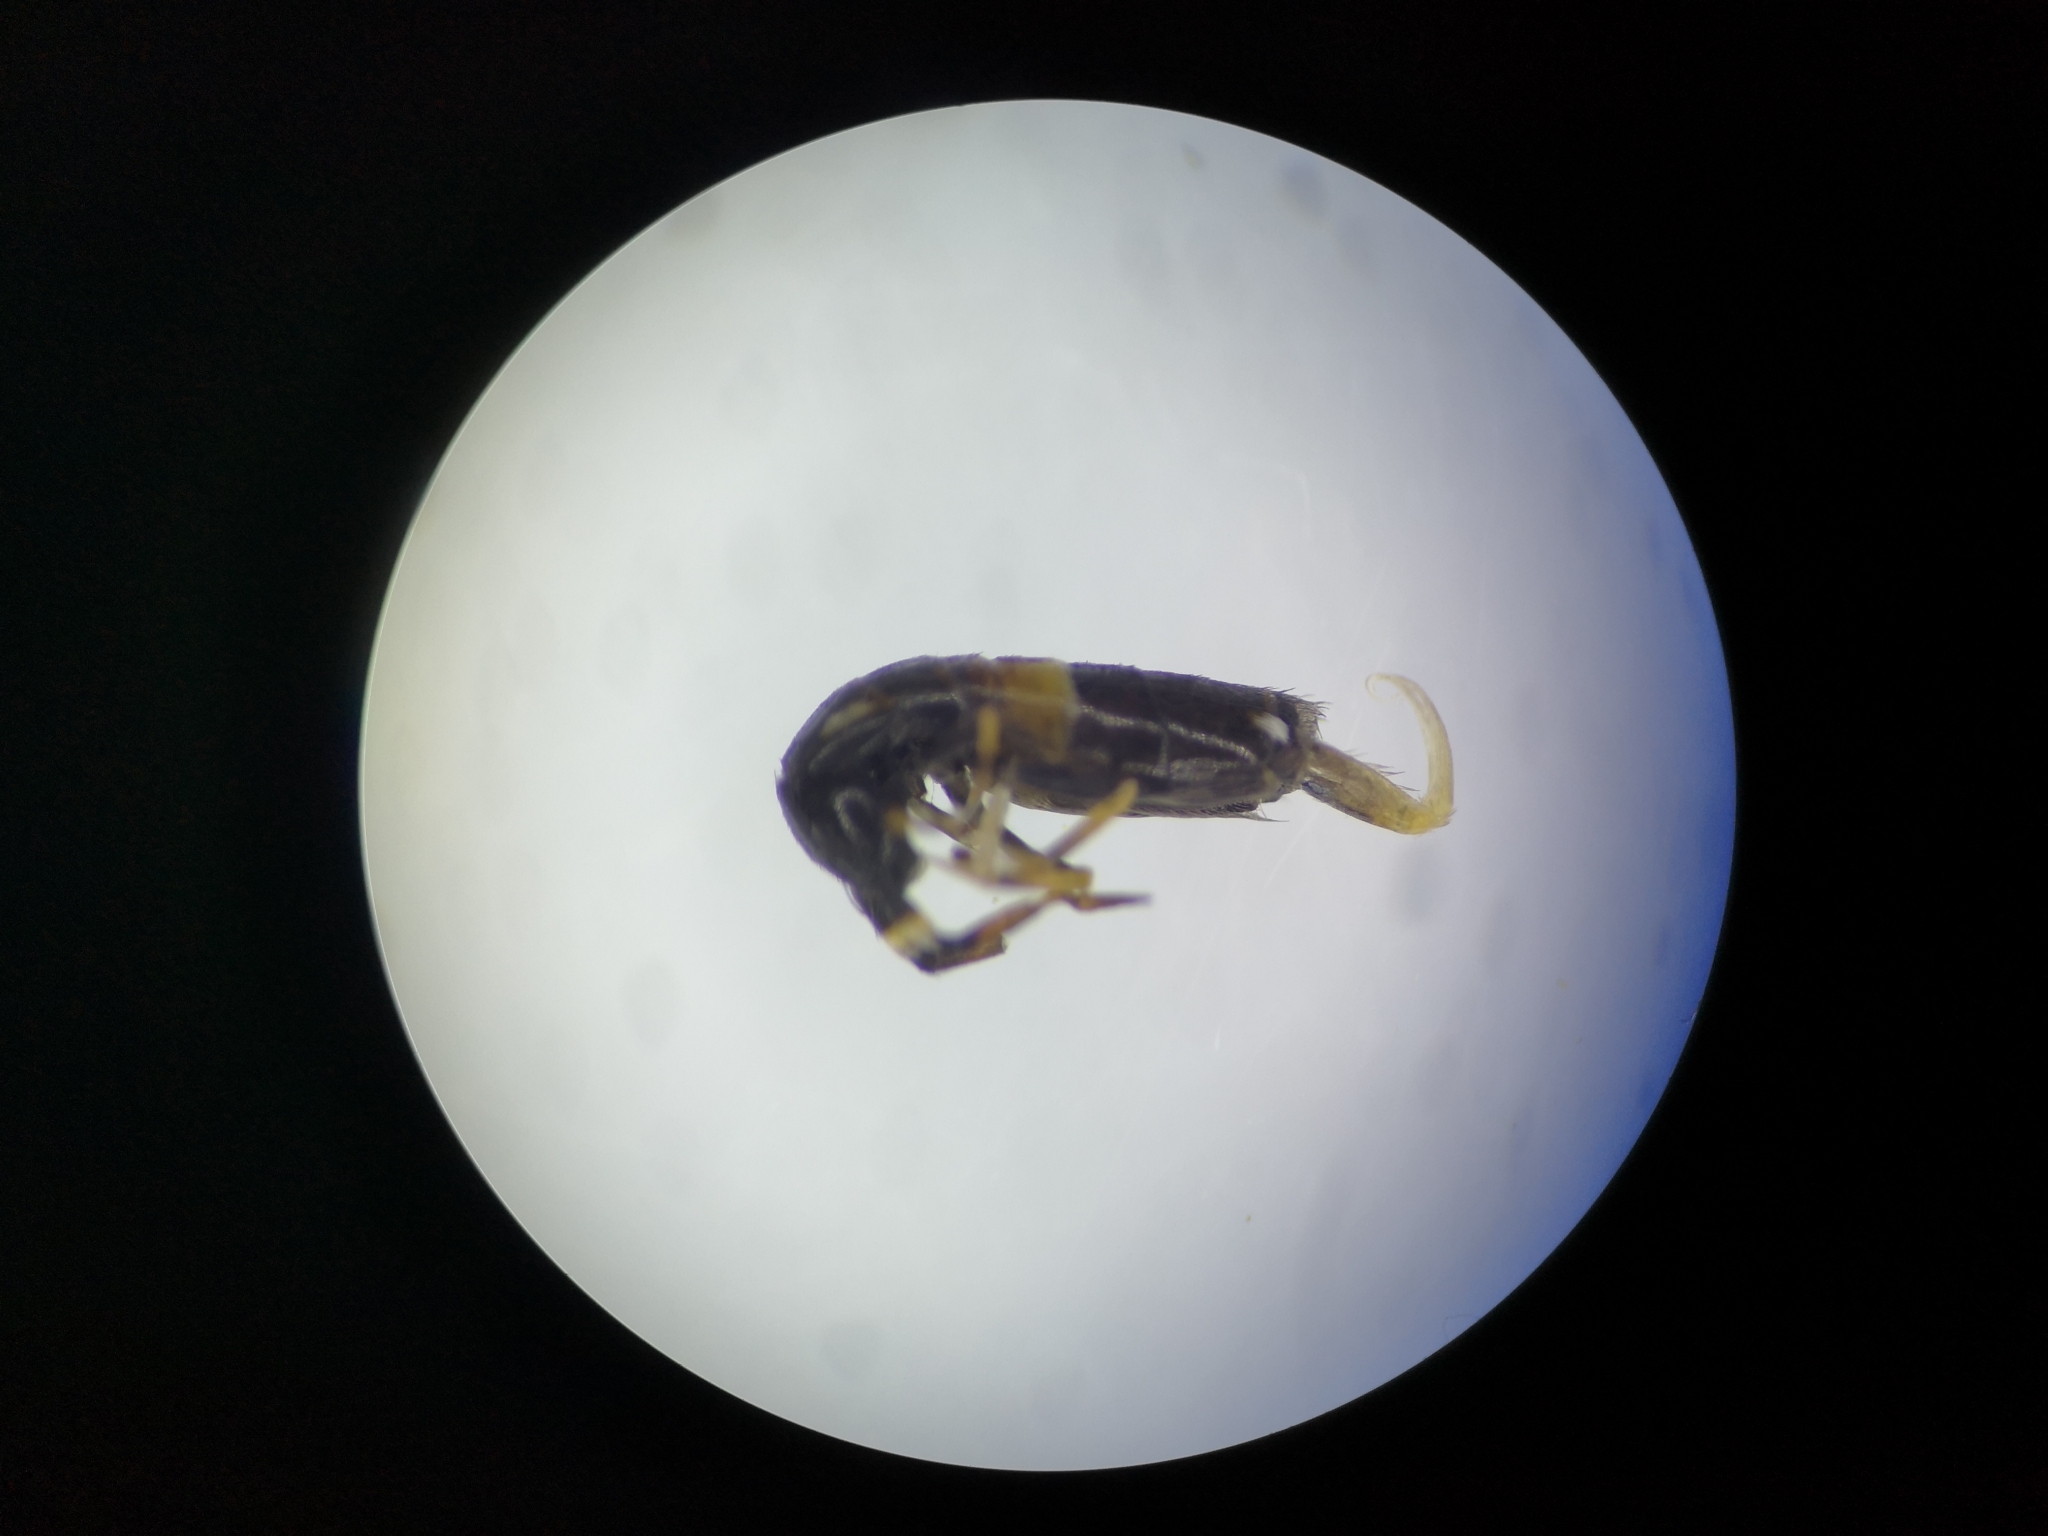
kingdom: Animalia
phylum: Arthropoda
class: Collembola
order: Entomobryomorpha
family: Orchesellidae
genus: Orchesella
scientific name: Orchesella cincta
